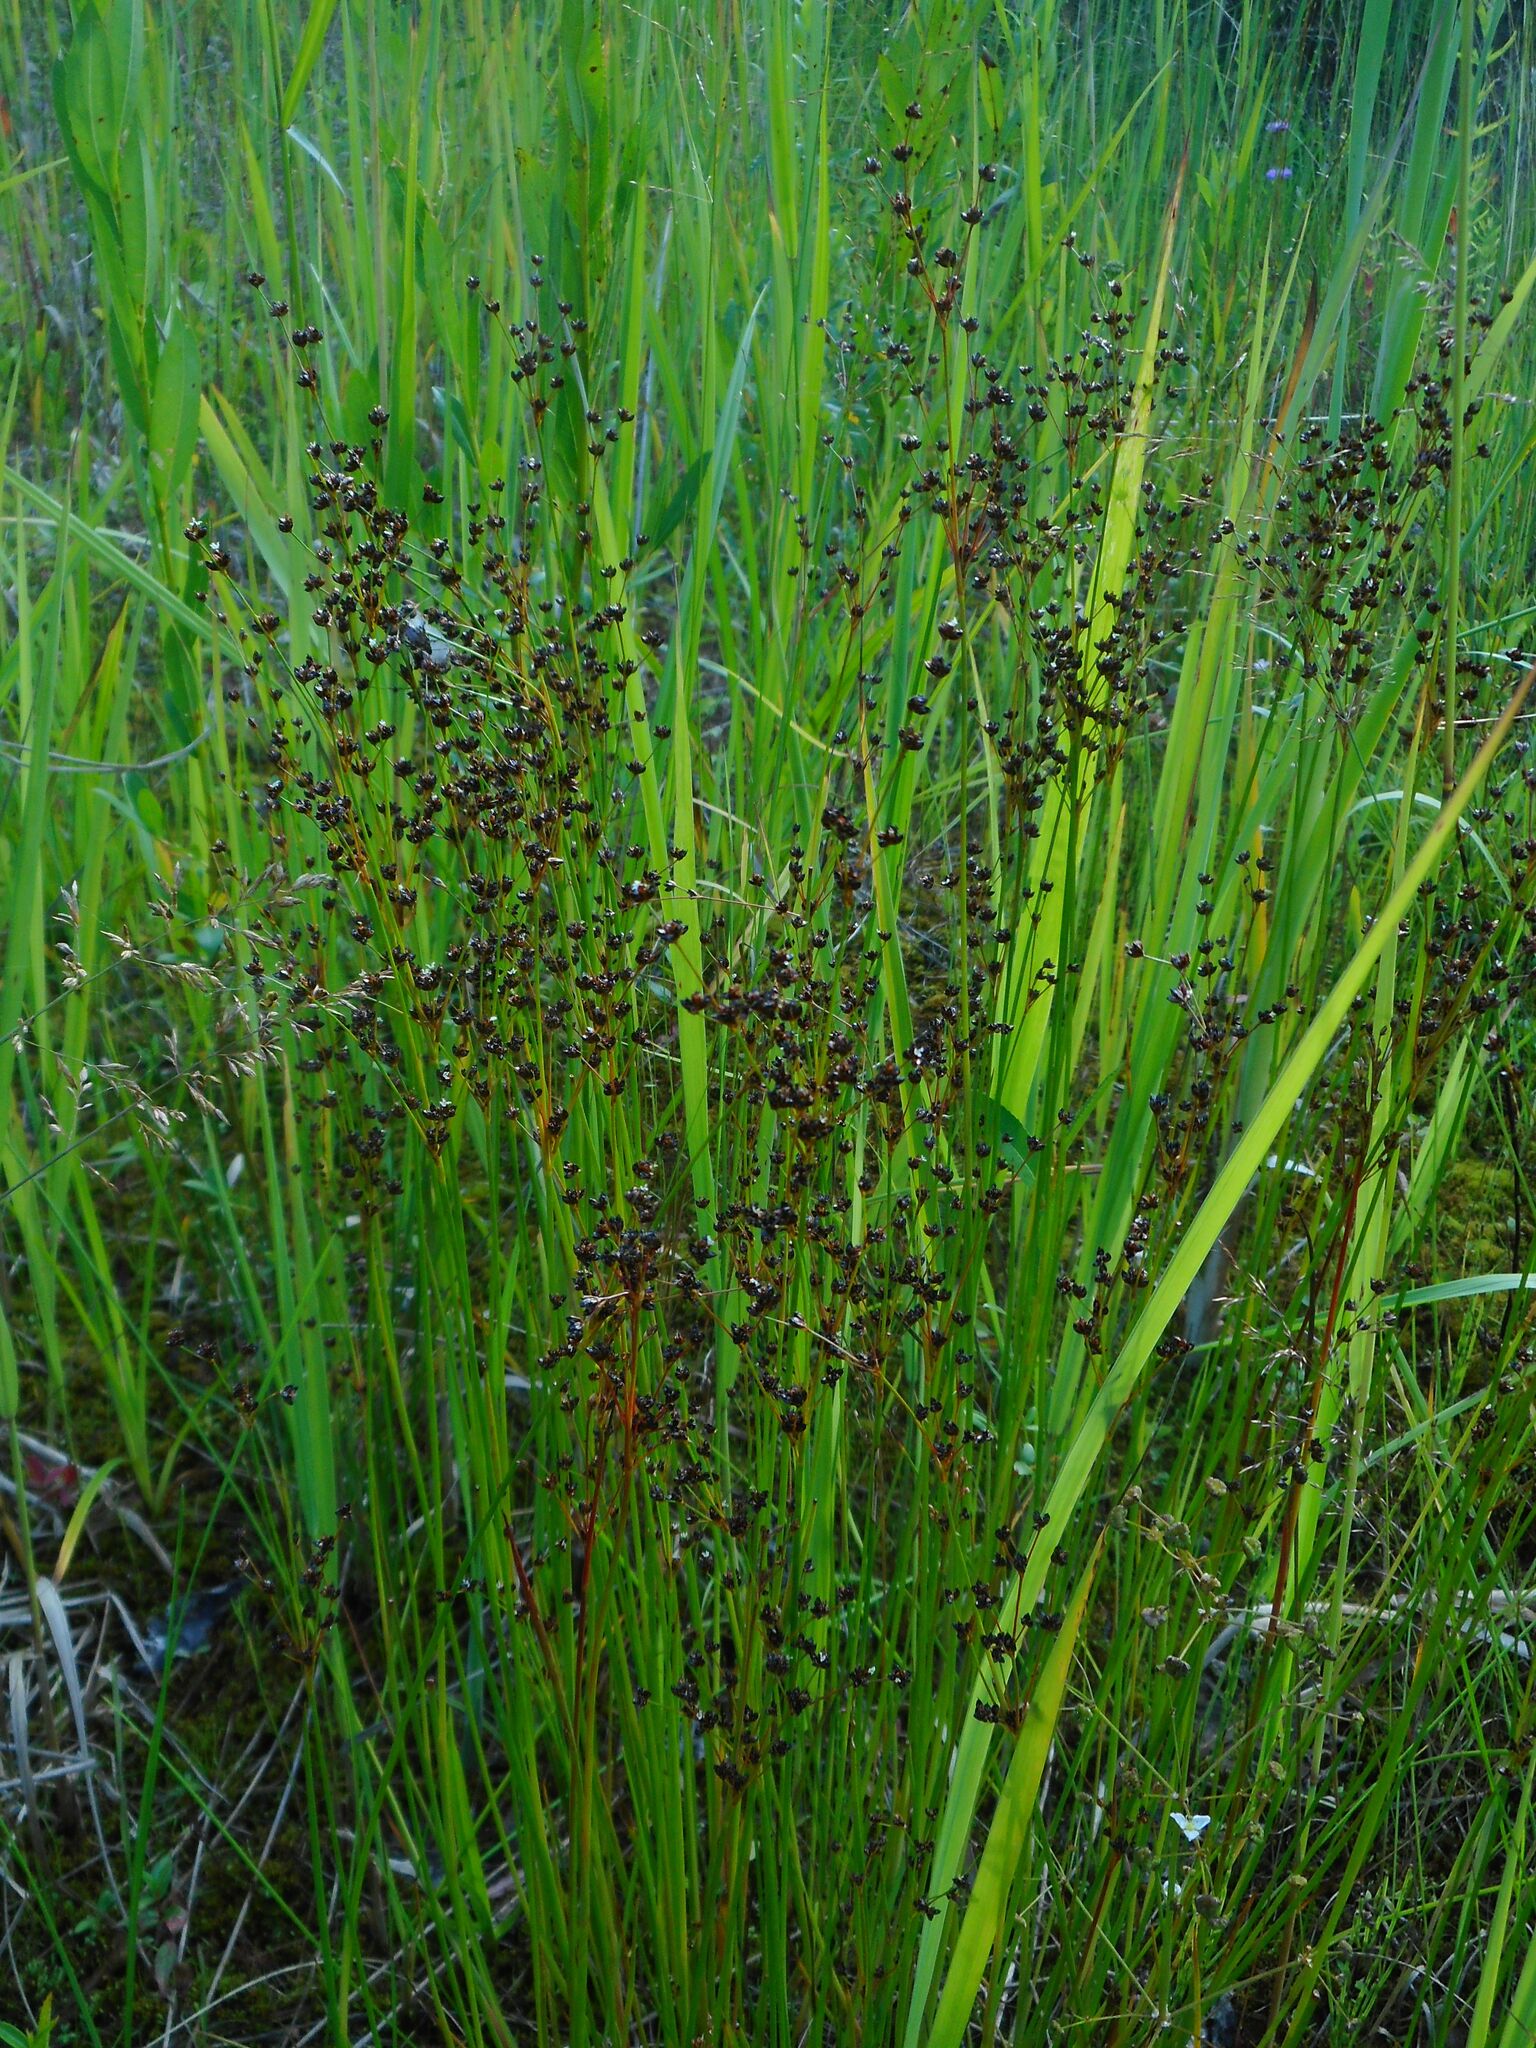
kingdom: Plantae
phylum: Tracheophyta
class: Liliopsida
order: Poales
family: Juncaceae
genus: Juncus
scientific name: Juncus alpinoarticulatus
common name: Alpine rush
